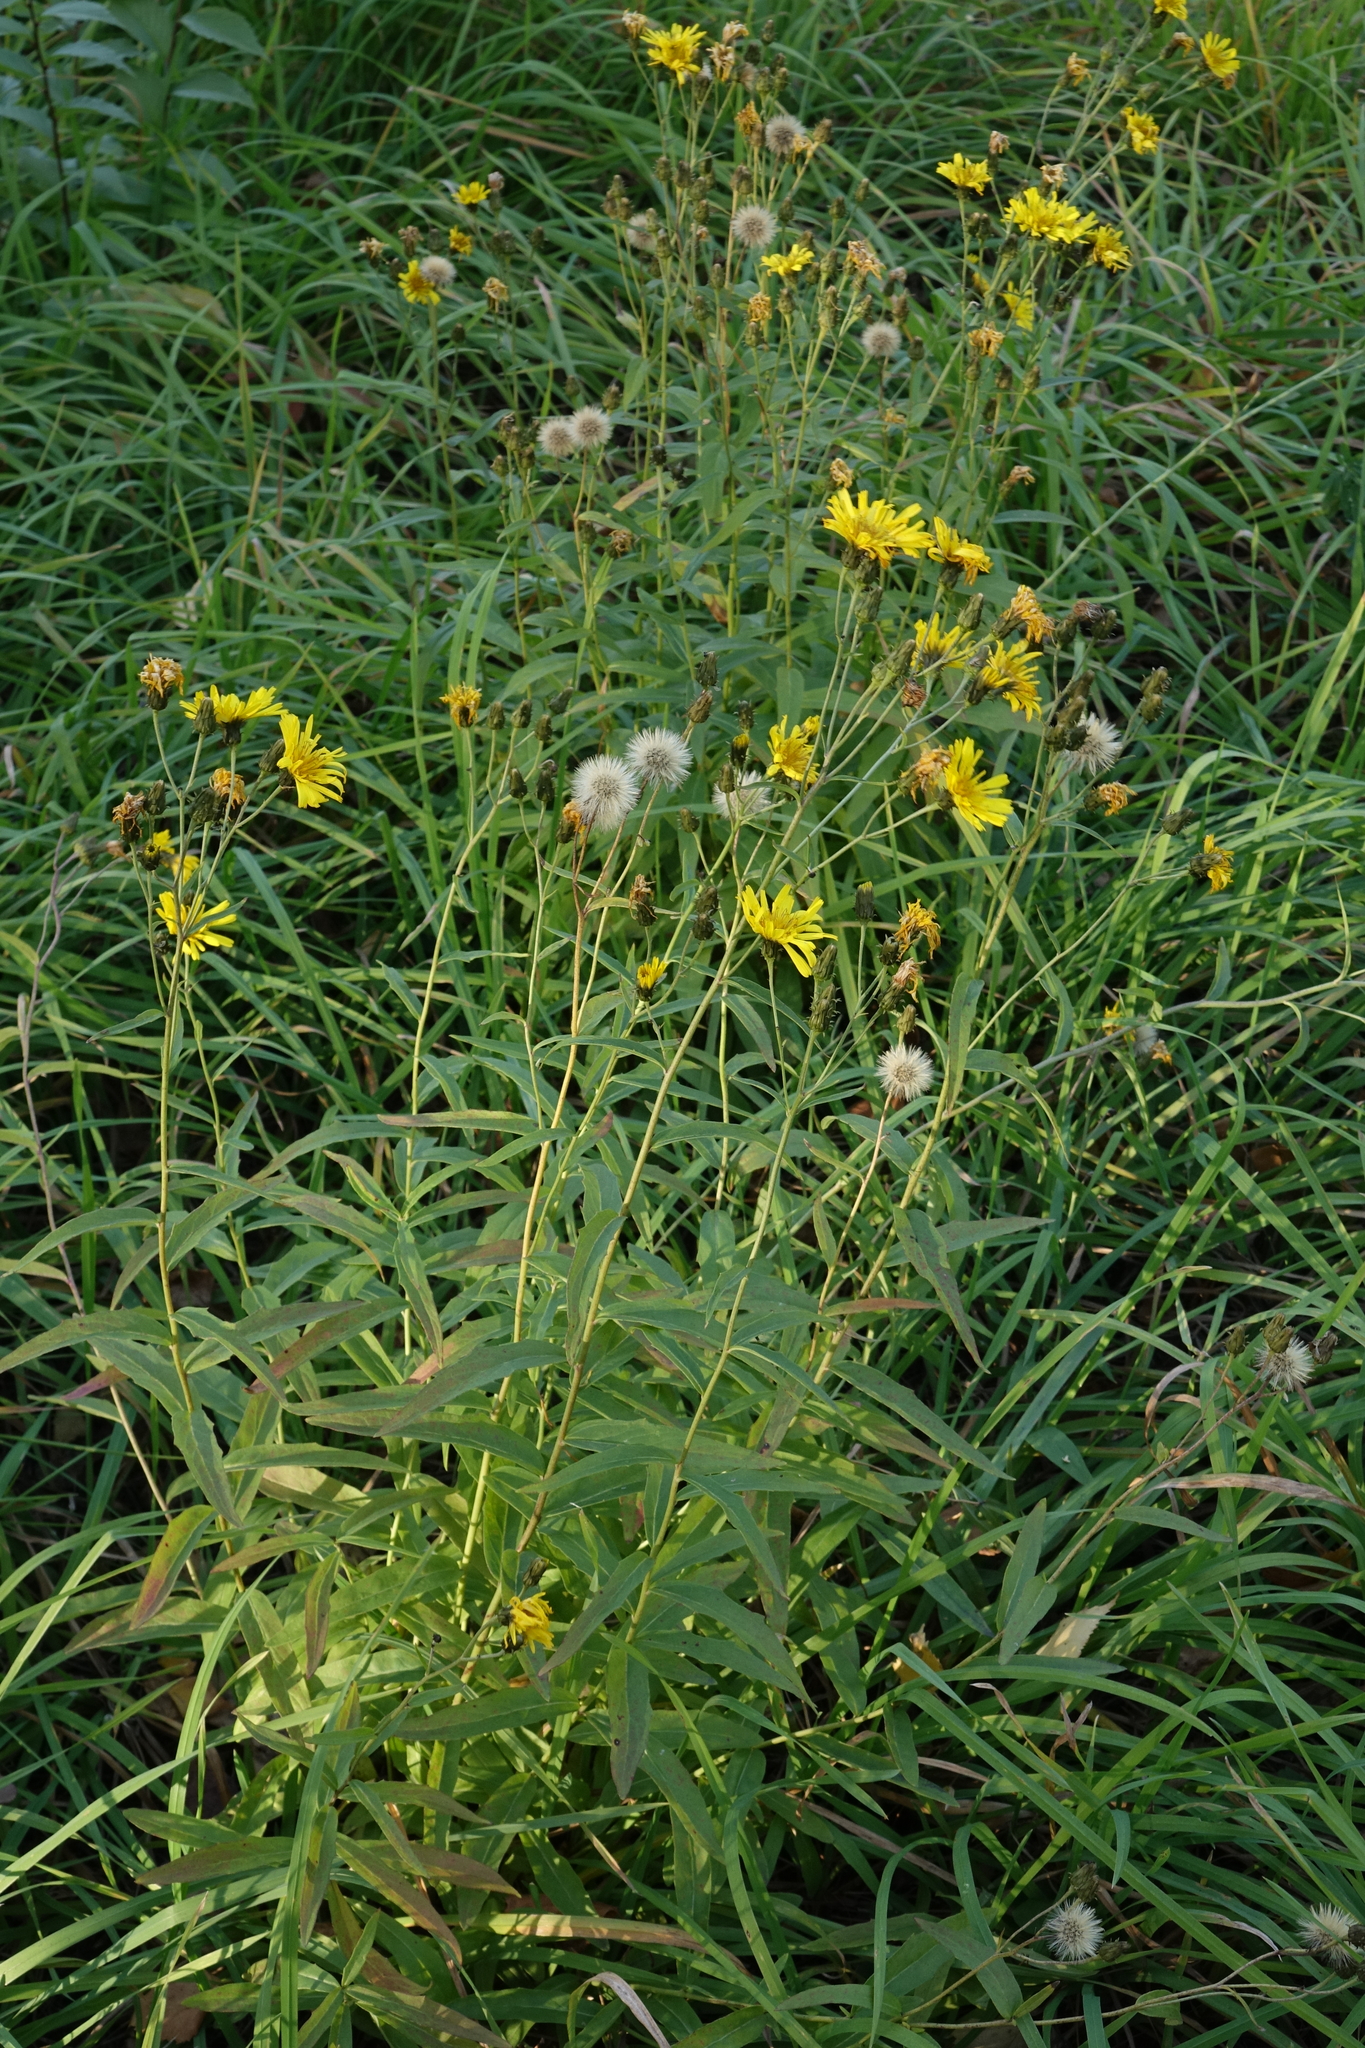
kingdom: Plantae
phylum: Tracheophyta
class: Magnoliopsida
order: Asterales
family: Asteraceae
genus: Hieracium
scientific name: Hieracium umbellatum
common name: Northern hawkweed
